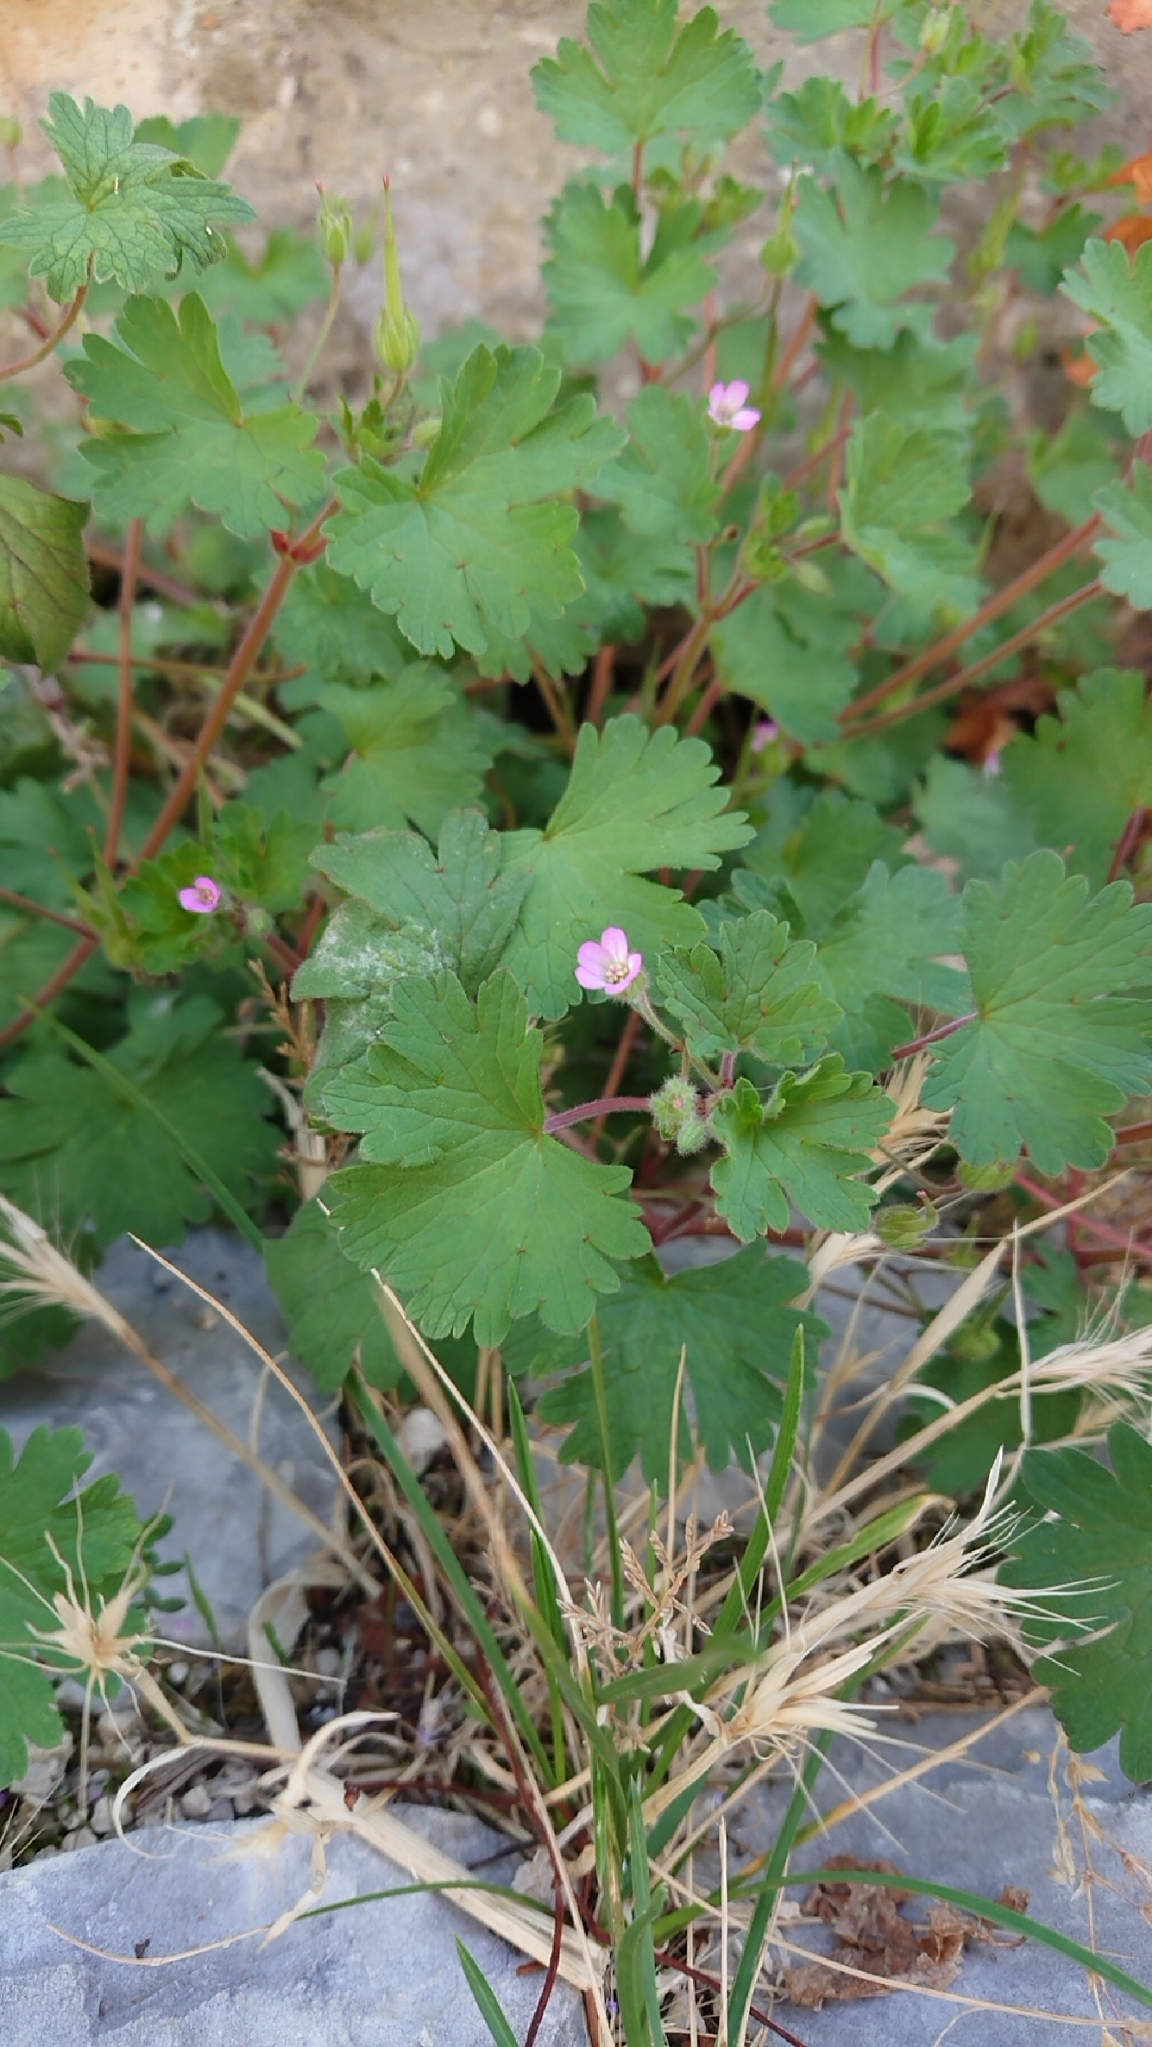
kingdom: Plantae
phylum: Tracheophyta
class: Magnoliopsida
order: Geraniales
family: Geraniaceae
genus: Geranium
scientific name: Geranium rotundifolium
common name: Round-leaved crane's-bill
